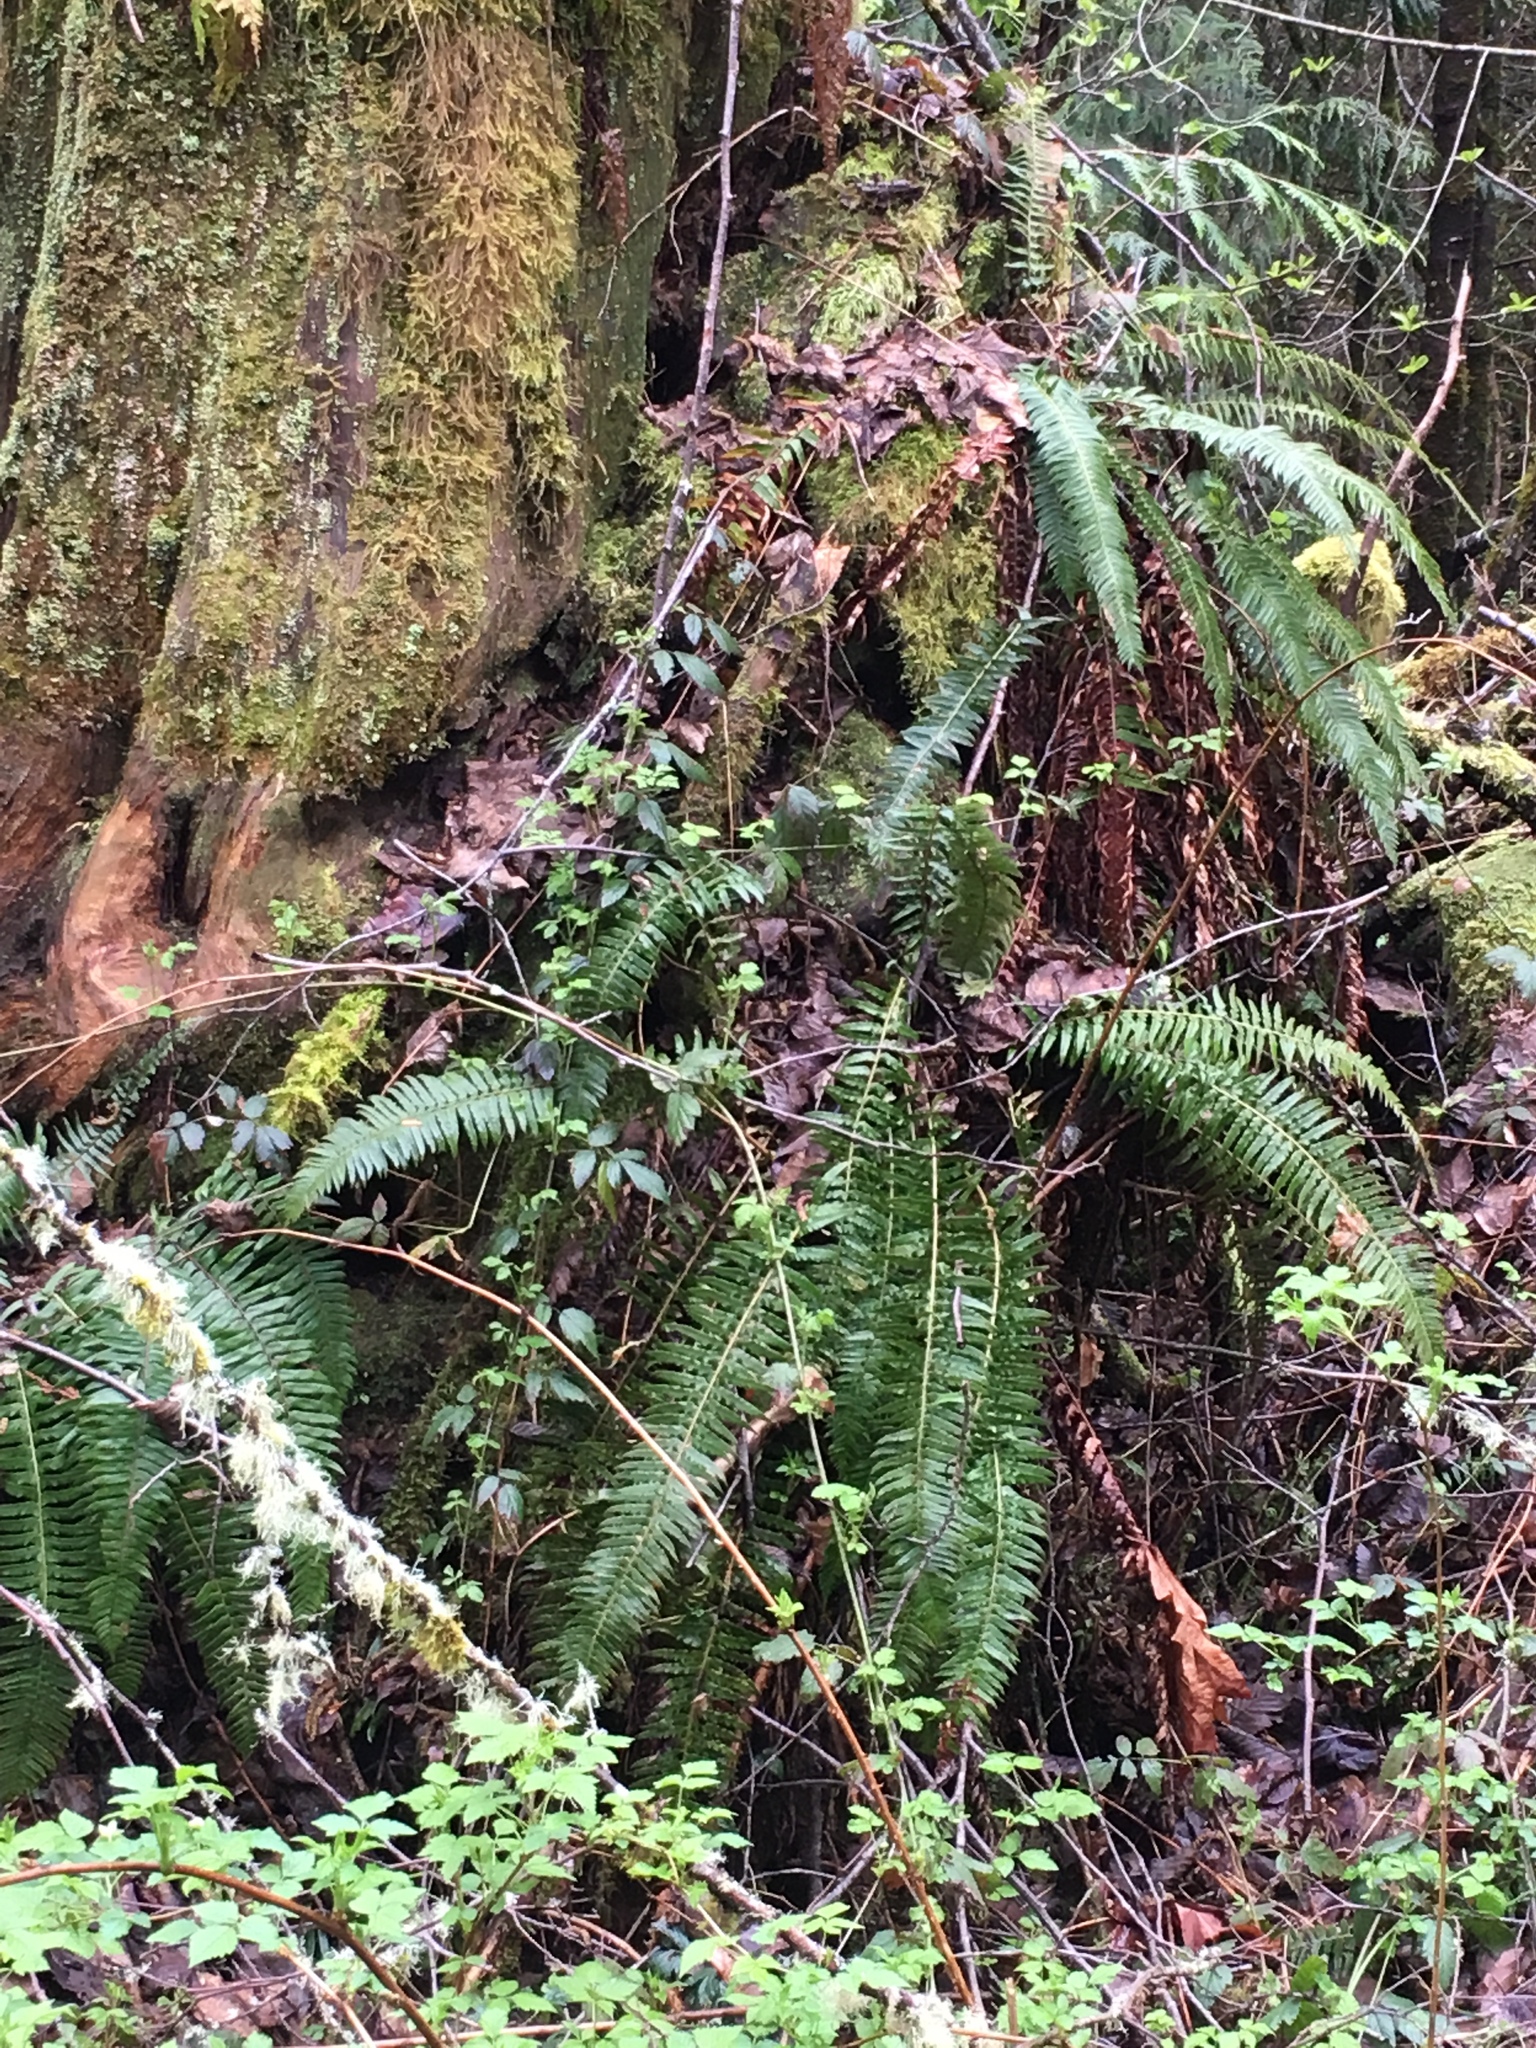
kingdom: Plantae
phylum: Tracheophyta
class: Polypodiopsida
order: Polypodiales
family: Dryopteridaceae
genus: Polystichum
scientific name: Polystichum munitum
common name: Western sword-fern
